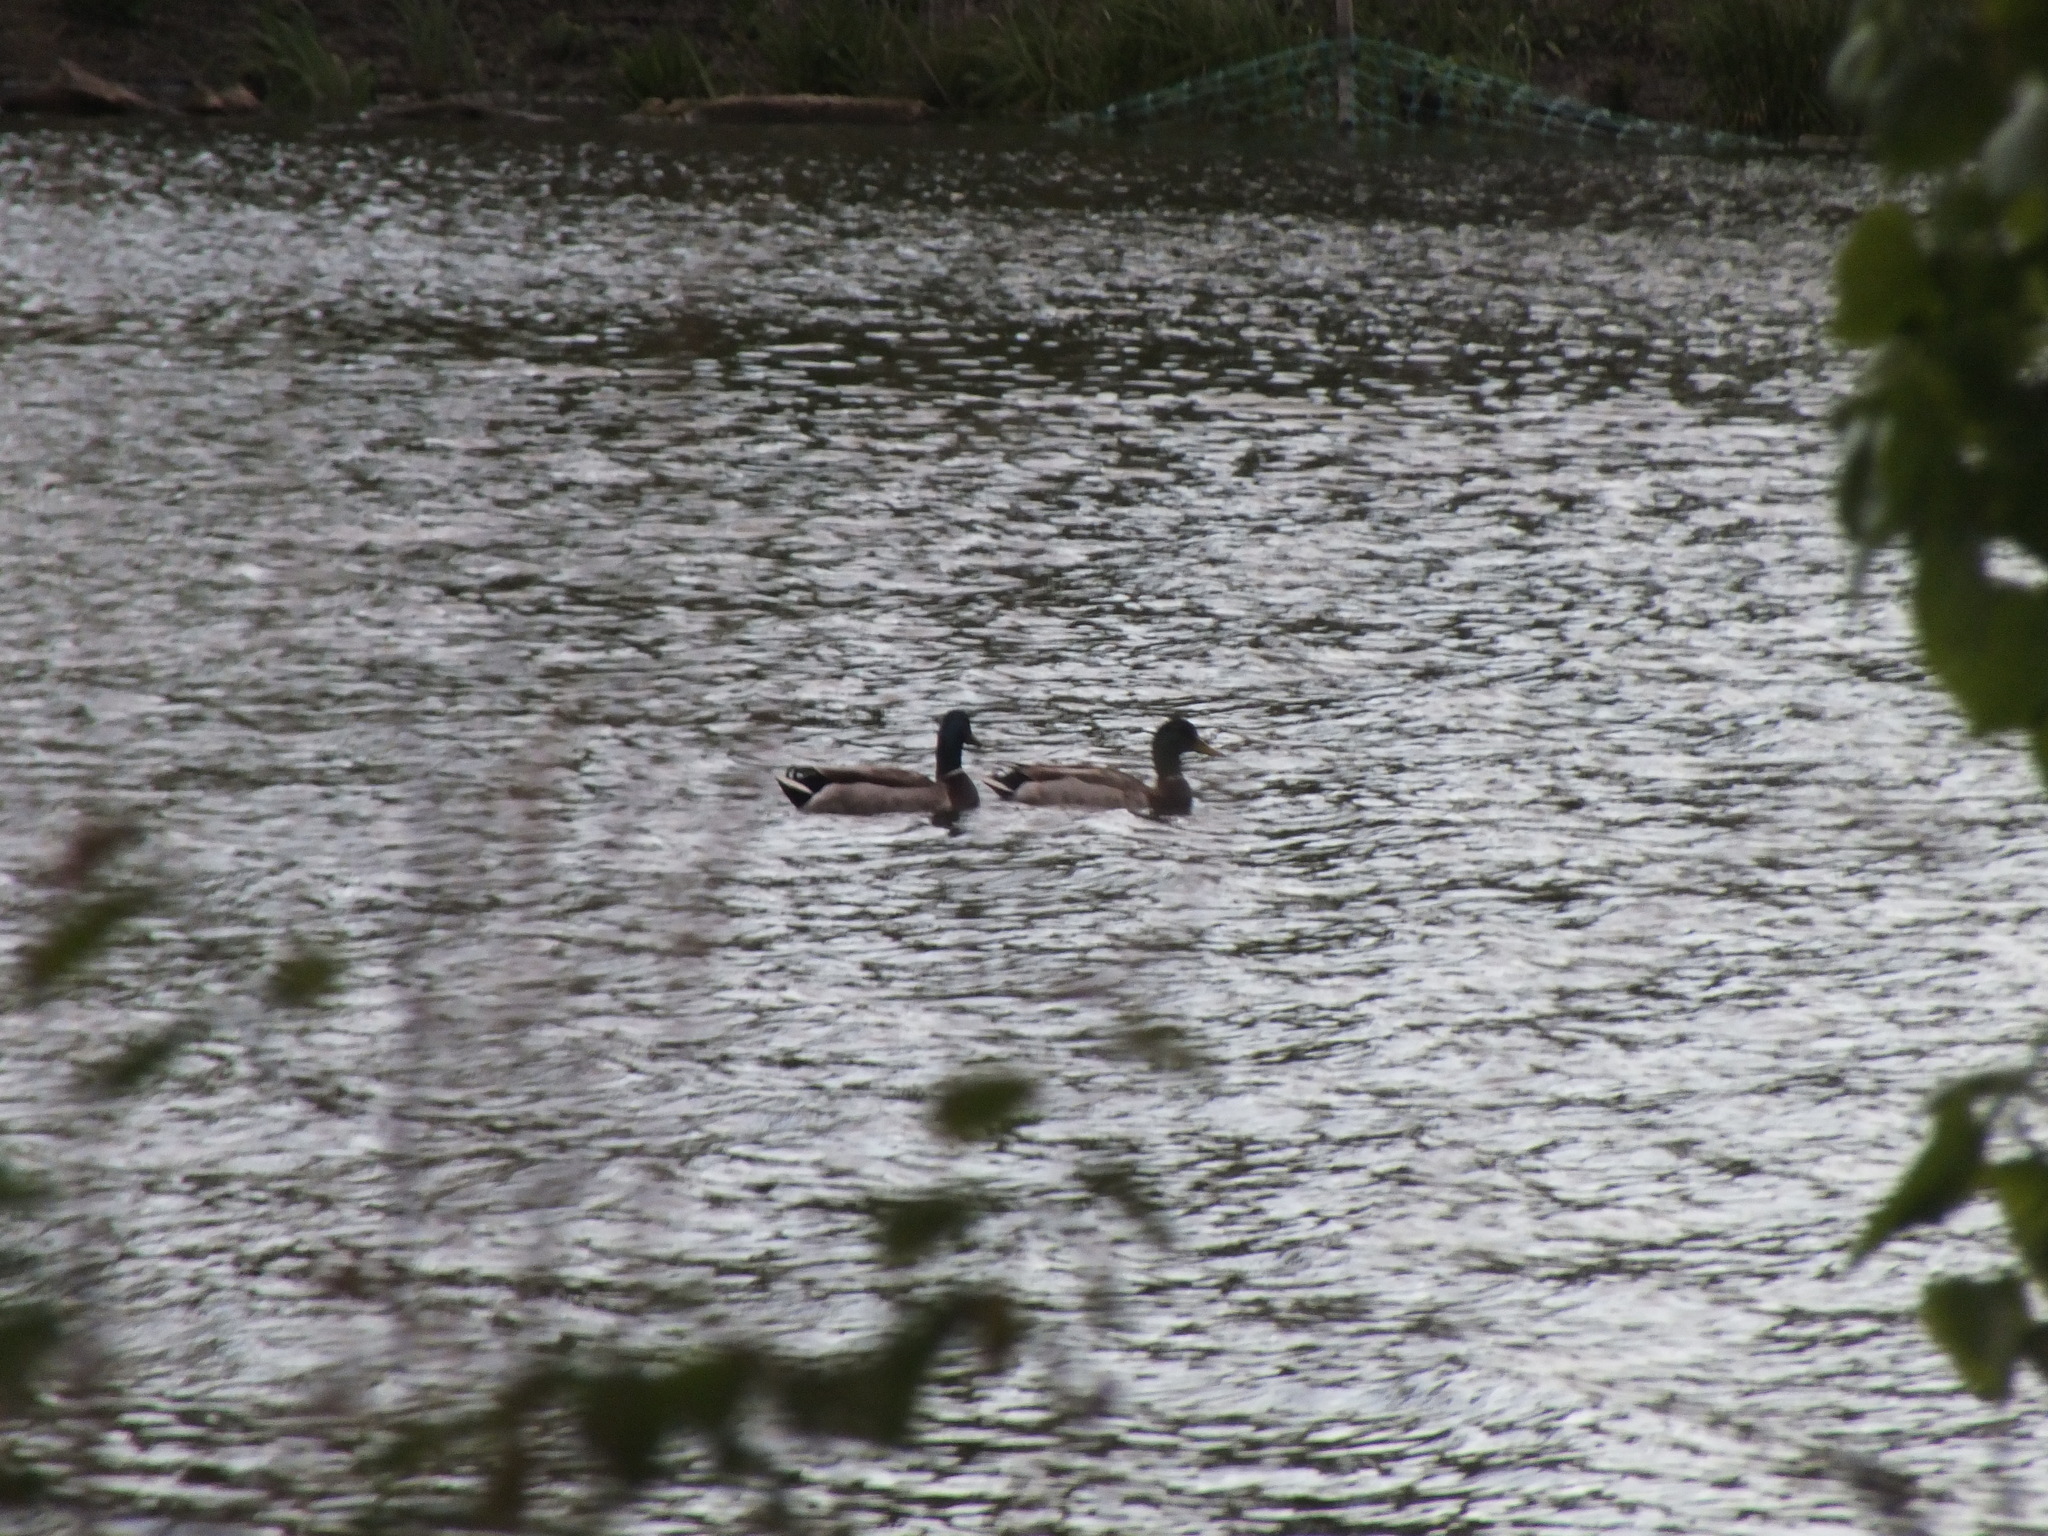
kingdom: Animalia
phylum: Chordata
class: Aves
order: Anseriformes
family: Anatidae
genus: Anas
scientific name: Anas platyrhynchos
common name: Mallard
